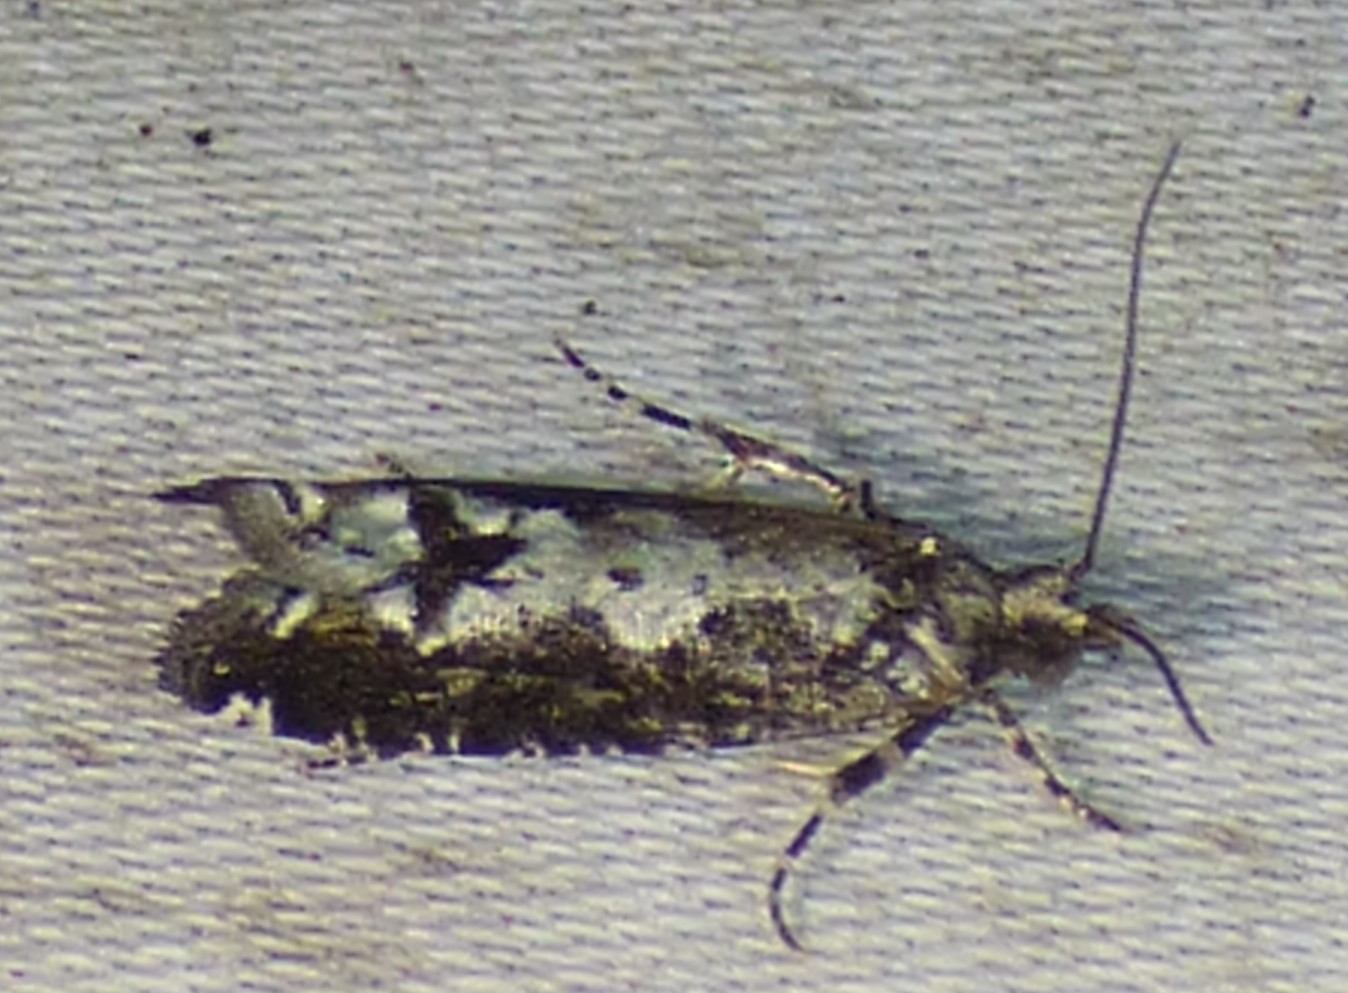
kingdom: Animalia
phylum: Arthropoda
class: Insecta
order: Lepidoptera
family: Tortricidae
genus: Chimoptesis
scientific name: Chimoptesis pennsylvaniana
